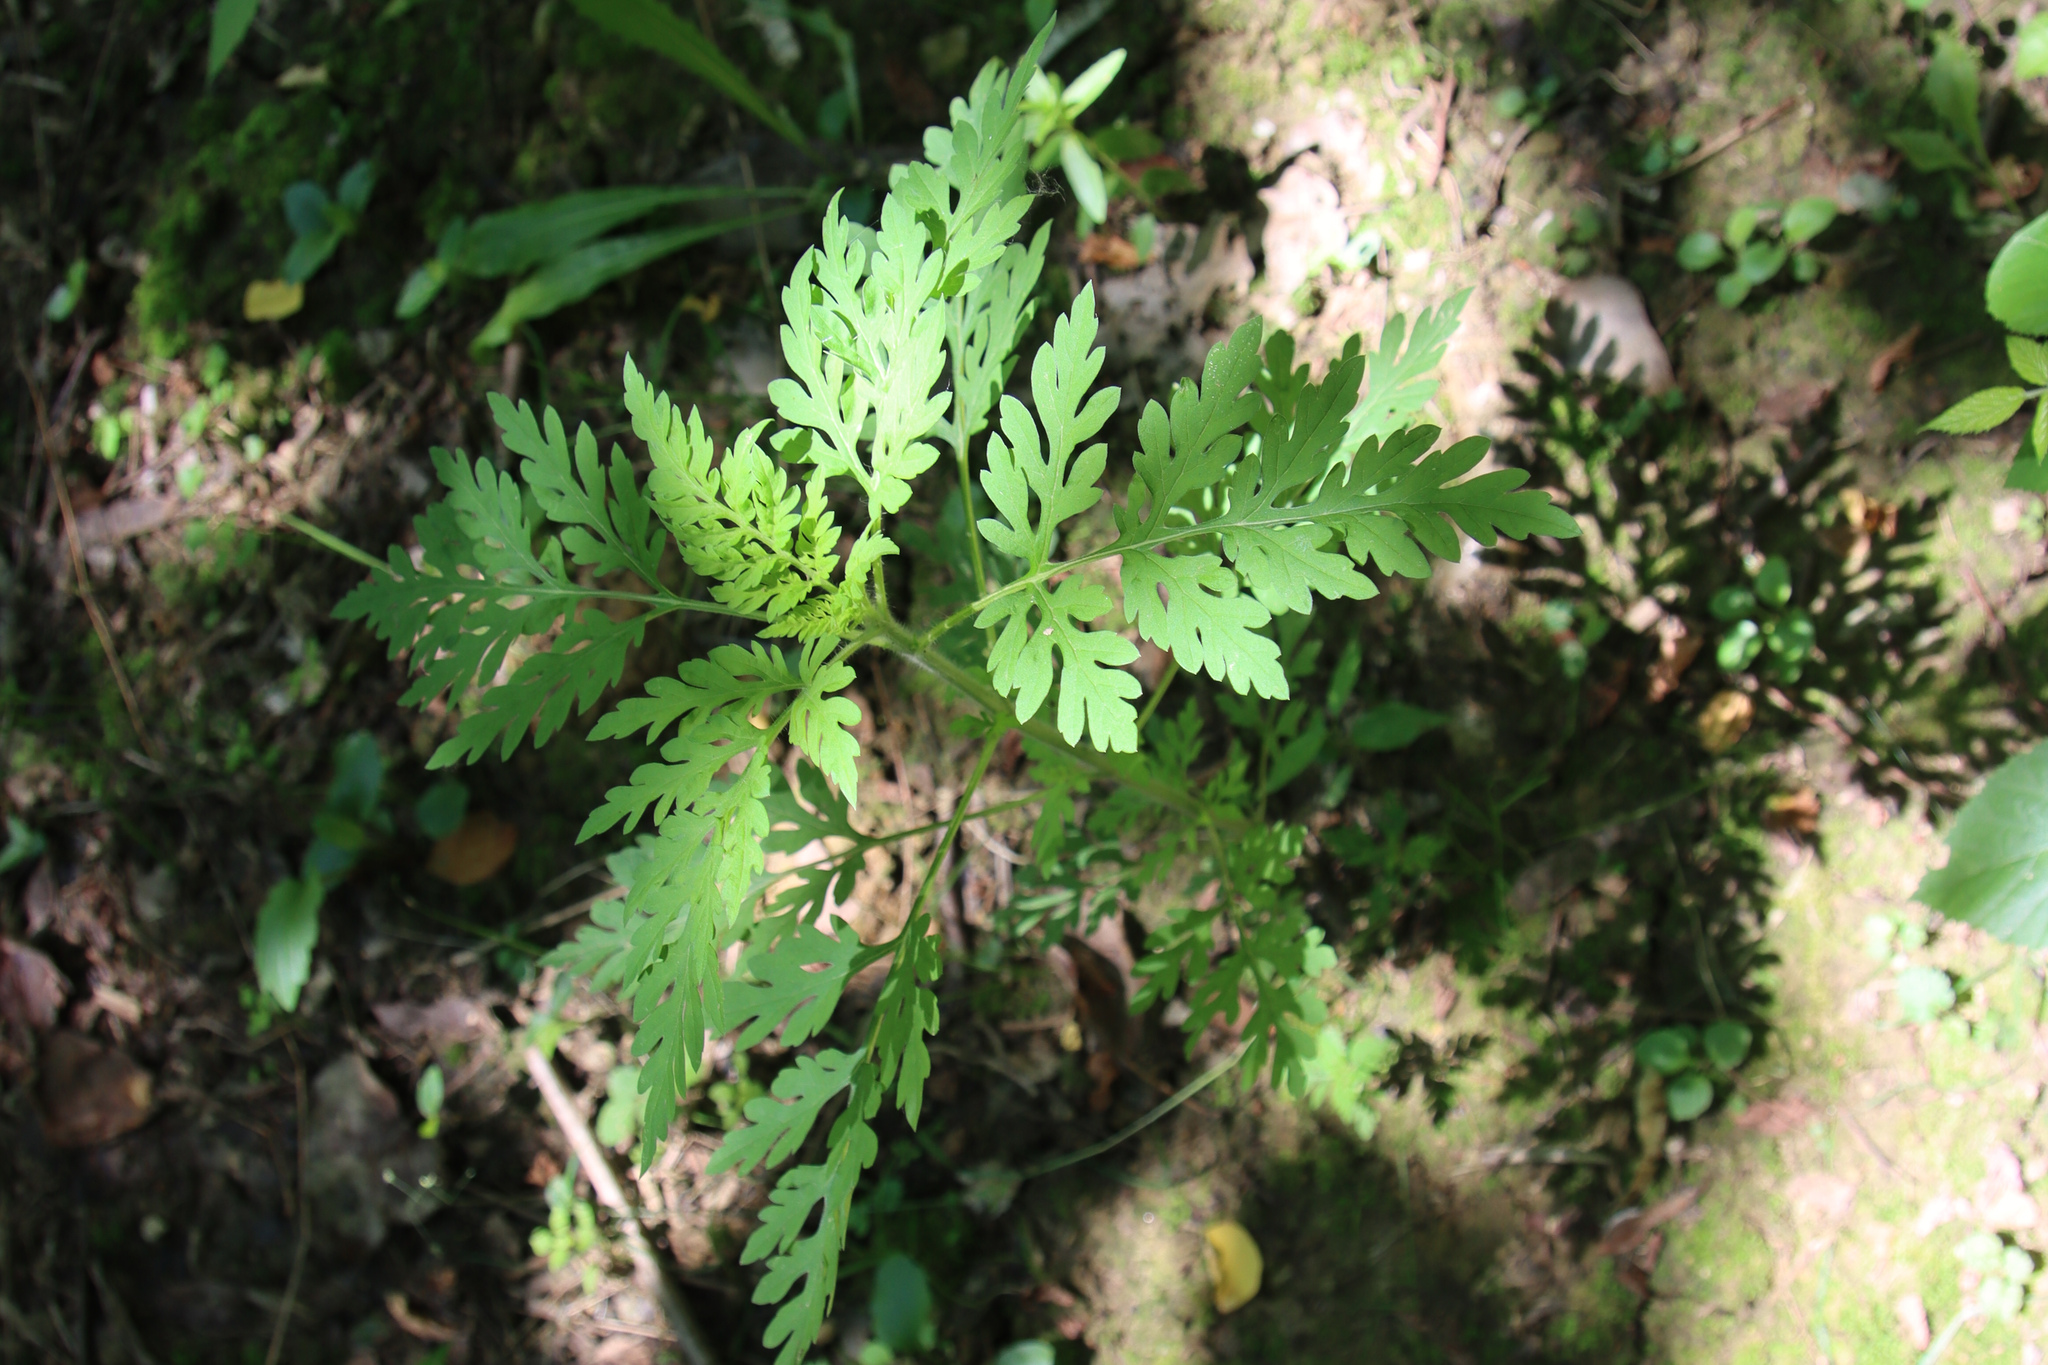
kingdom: Plantae
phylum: Tracheophyta
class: Magnoliopsida
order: Asterales
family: Asteraceae
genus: Ambrosia
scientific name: Ambrosia artemisiifolia
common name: Annual ragweed
